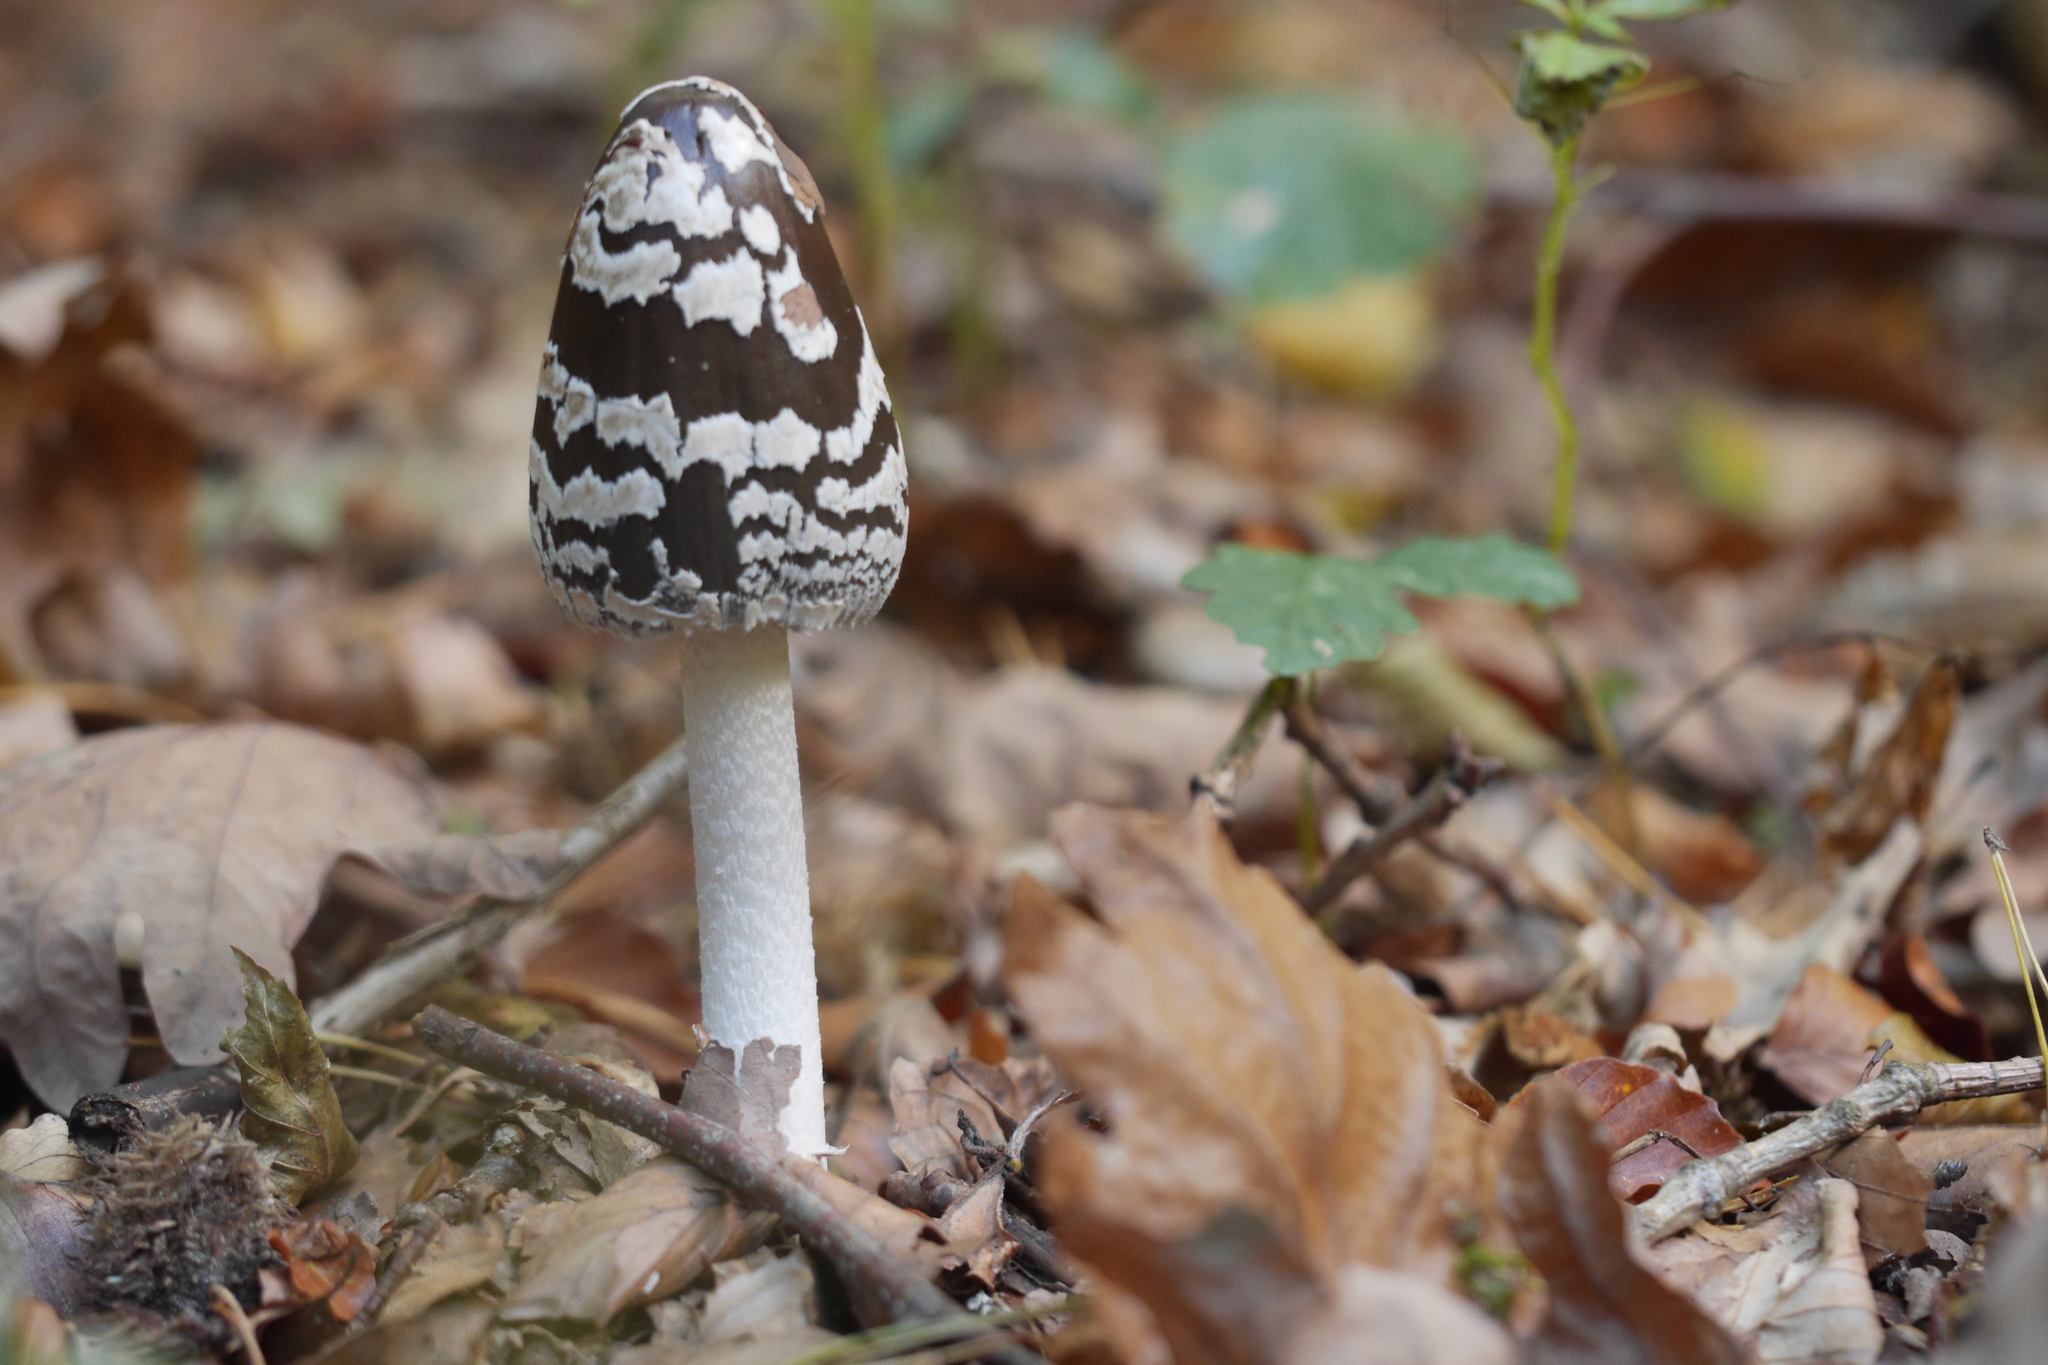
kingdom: Fungi
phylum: Basidiomycota
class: Agaricomycetes
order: Agaricales
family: Psathyrellaceae
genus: Coprinopsis
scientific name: Coprinopsis picacea
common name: Magpie inkcap
